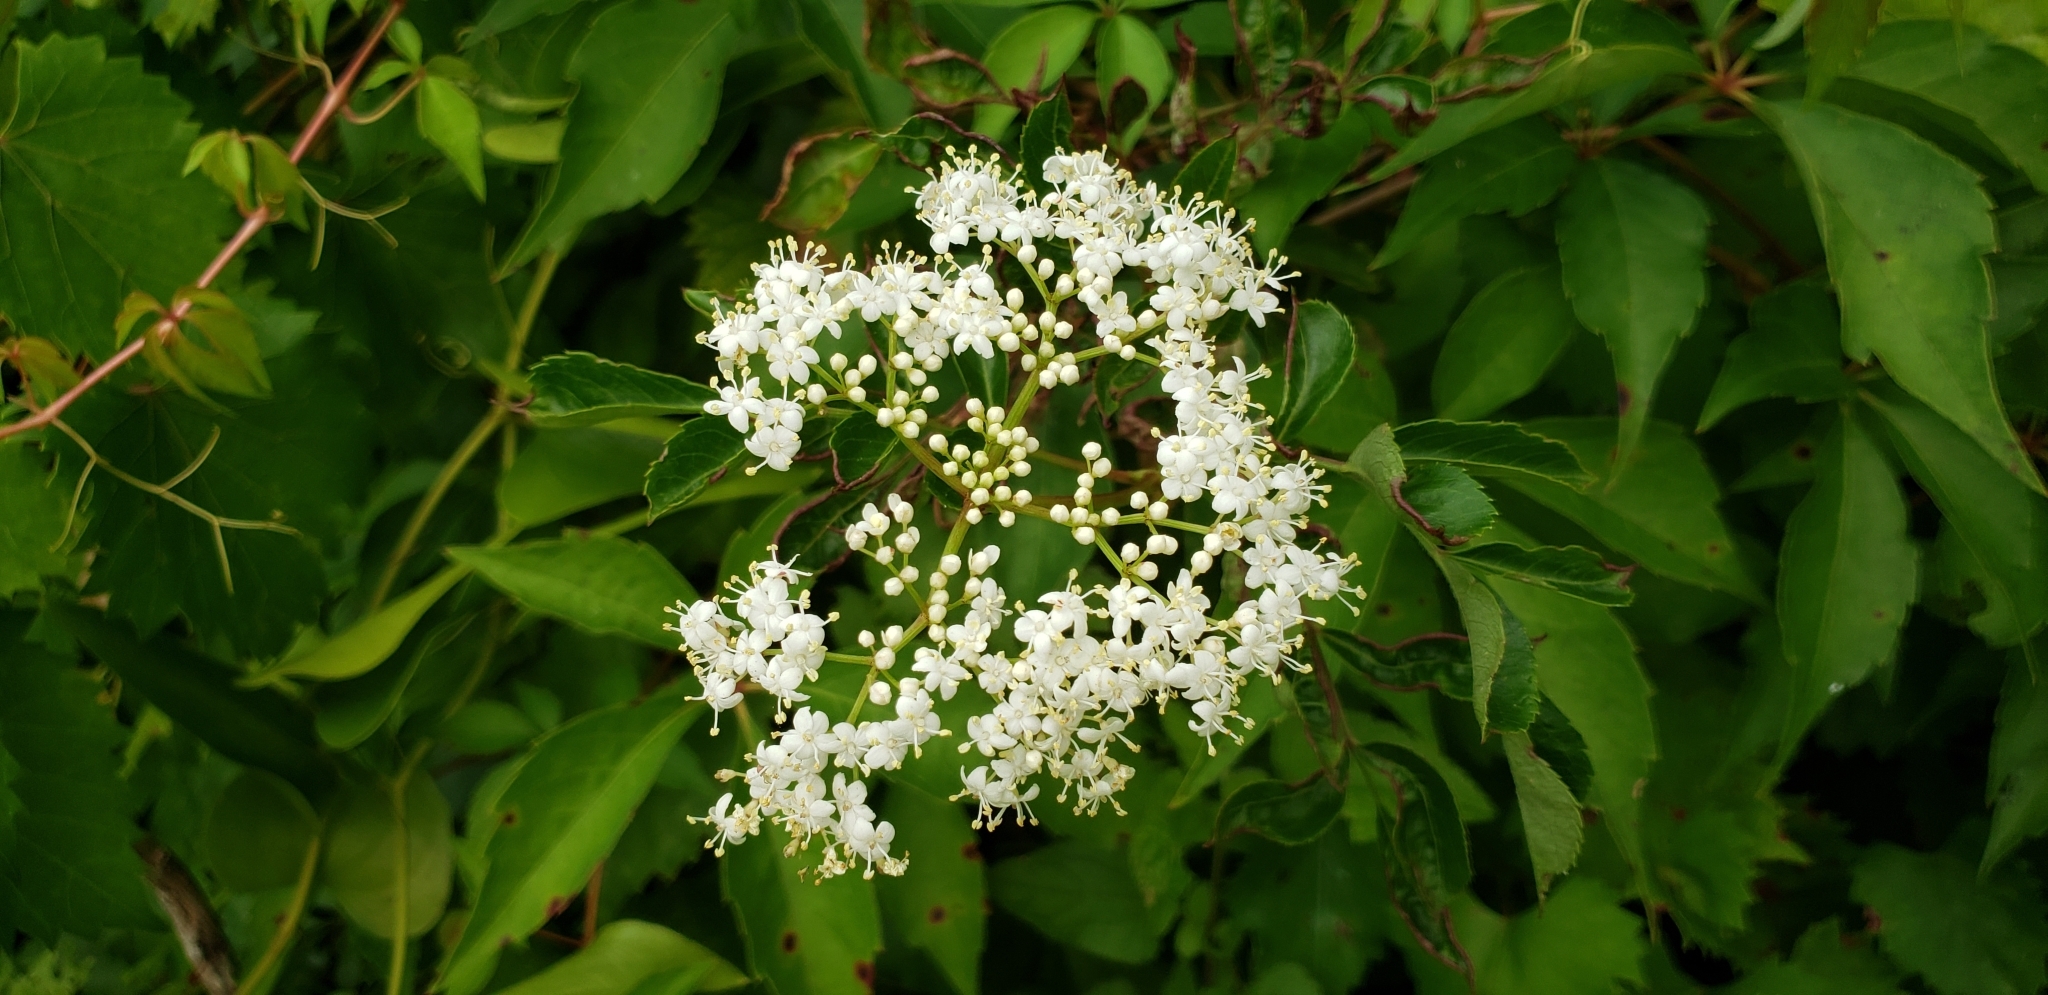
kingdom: Plantae
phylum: Tracheophyta
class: Magnoliopsida
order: Dipsacales
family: Viburnaceae
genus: Sambucus
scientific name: Sambucus canadensis
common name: American elder
